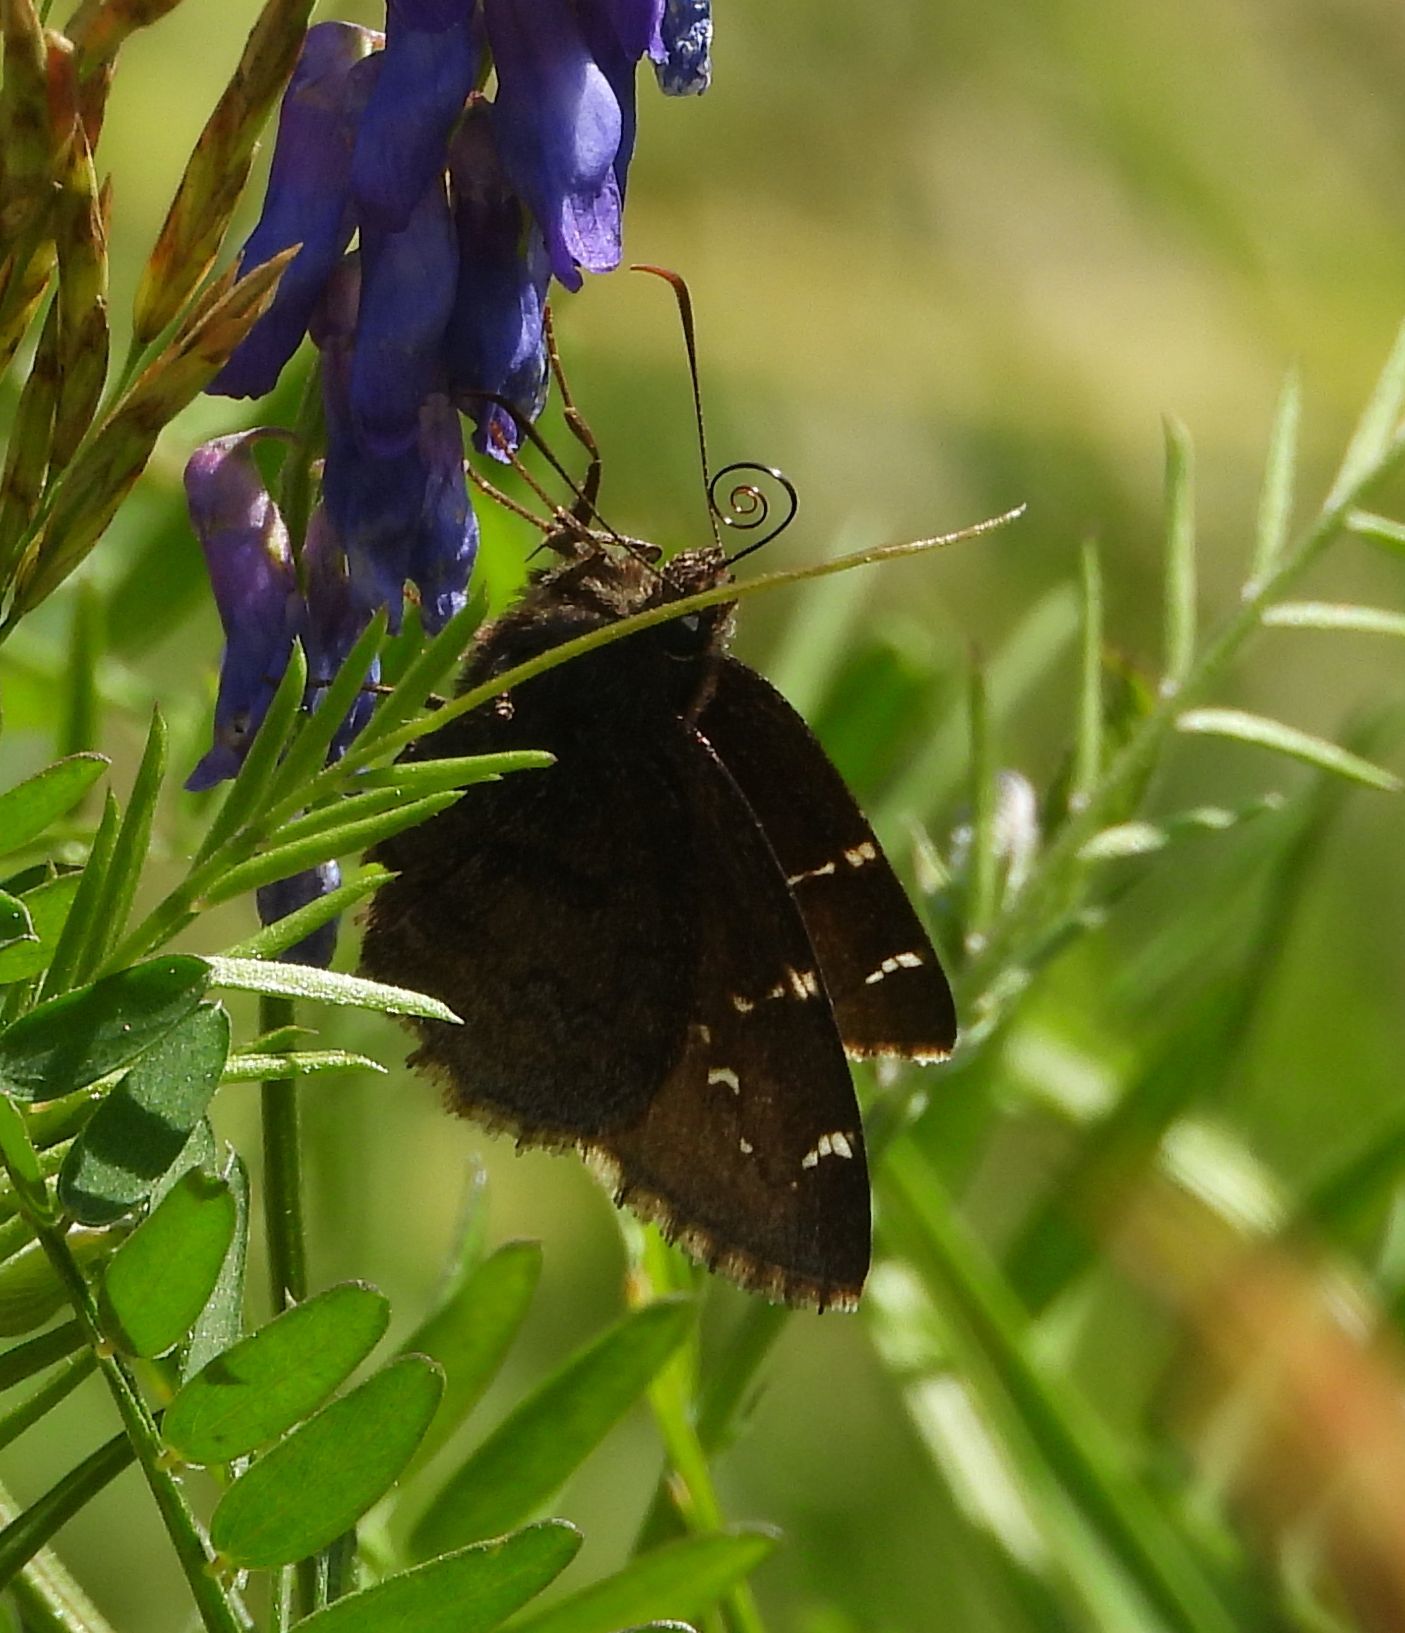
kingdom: Animalia
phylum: Arthropoda
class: Insecta
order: Lepidoptera
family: Hesperiidae
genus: Thorybes
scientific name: Thorybes pylades
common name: Northern cloudywing
